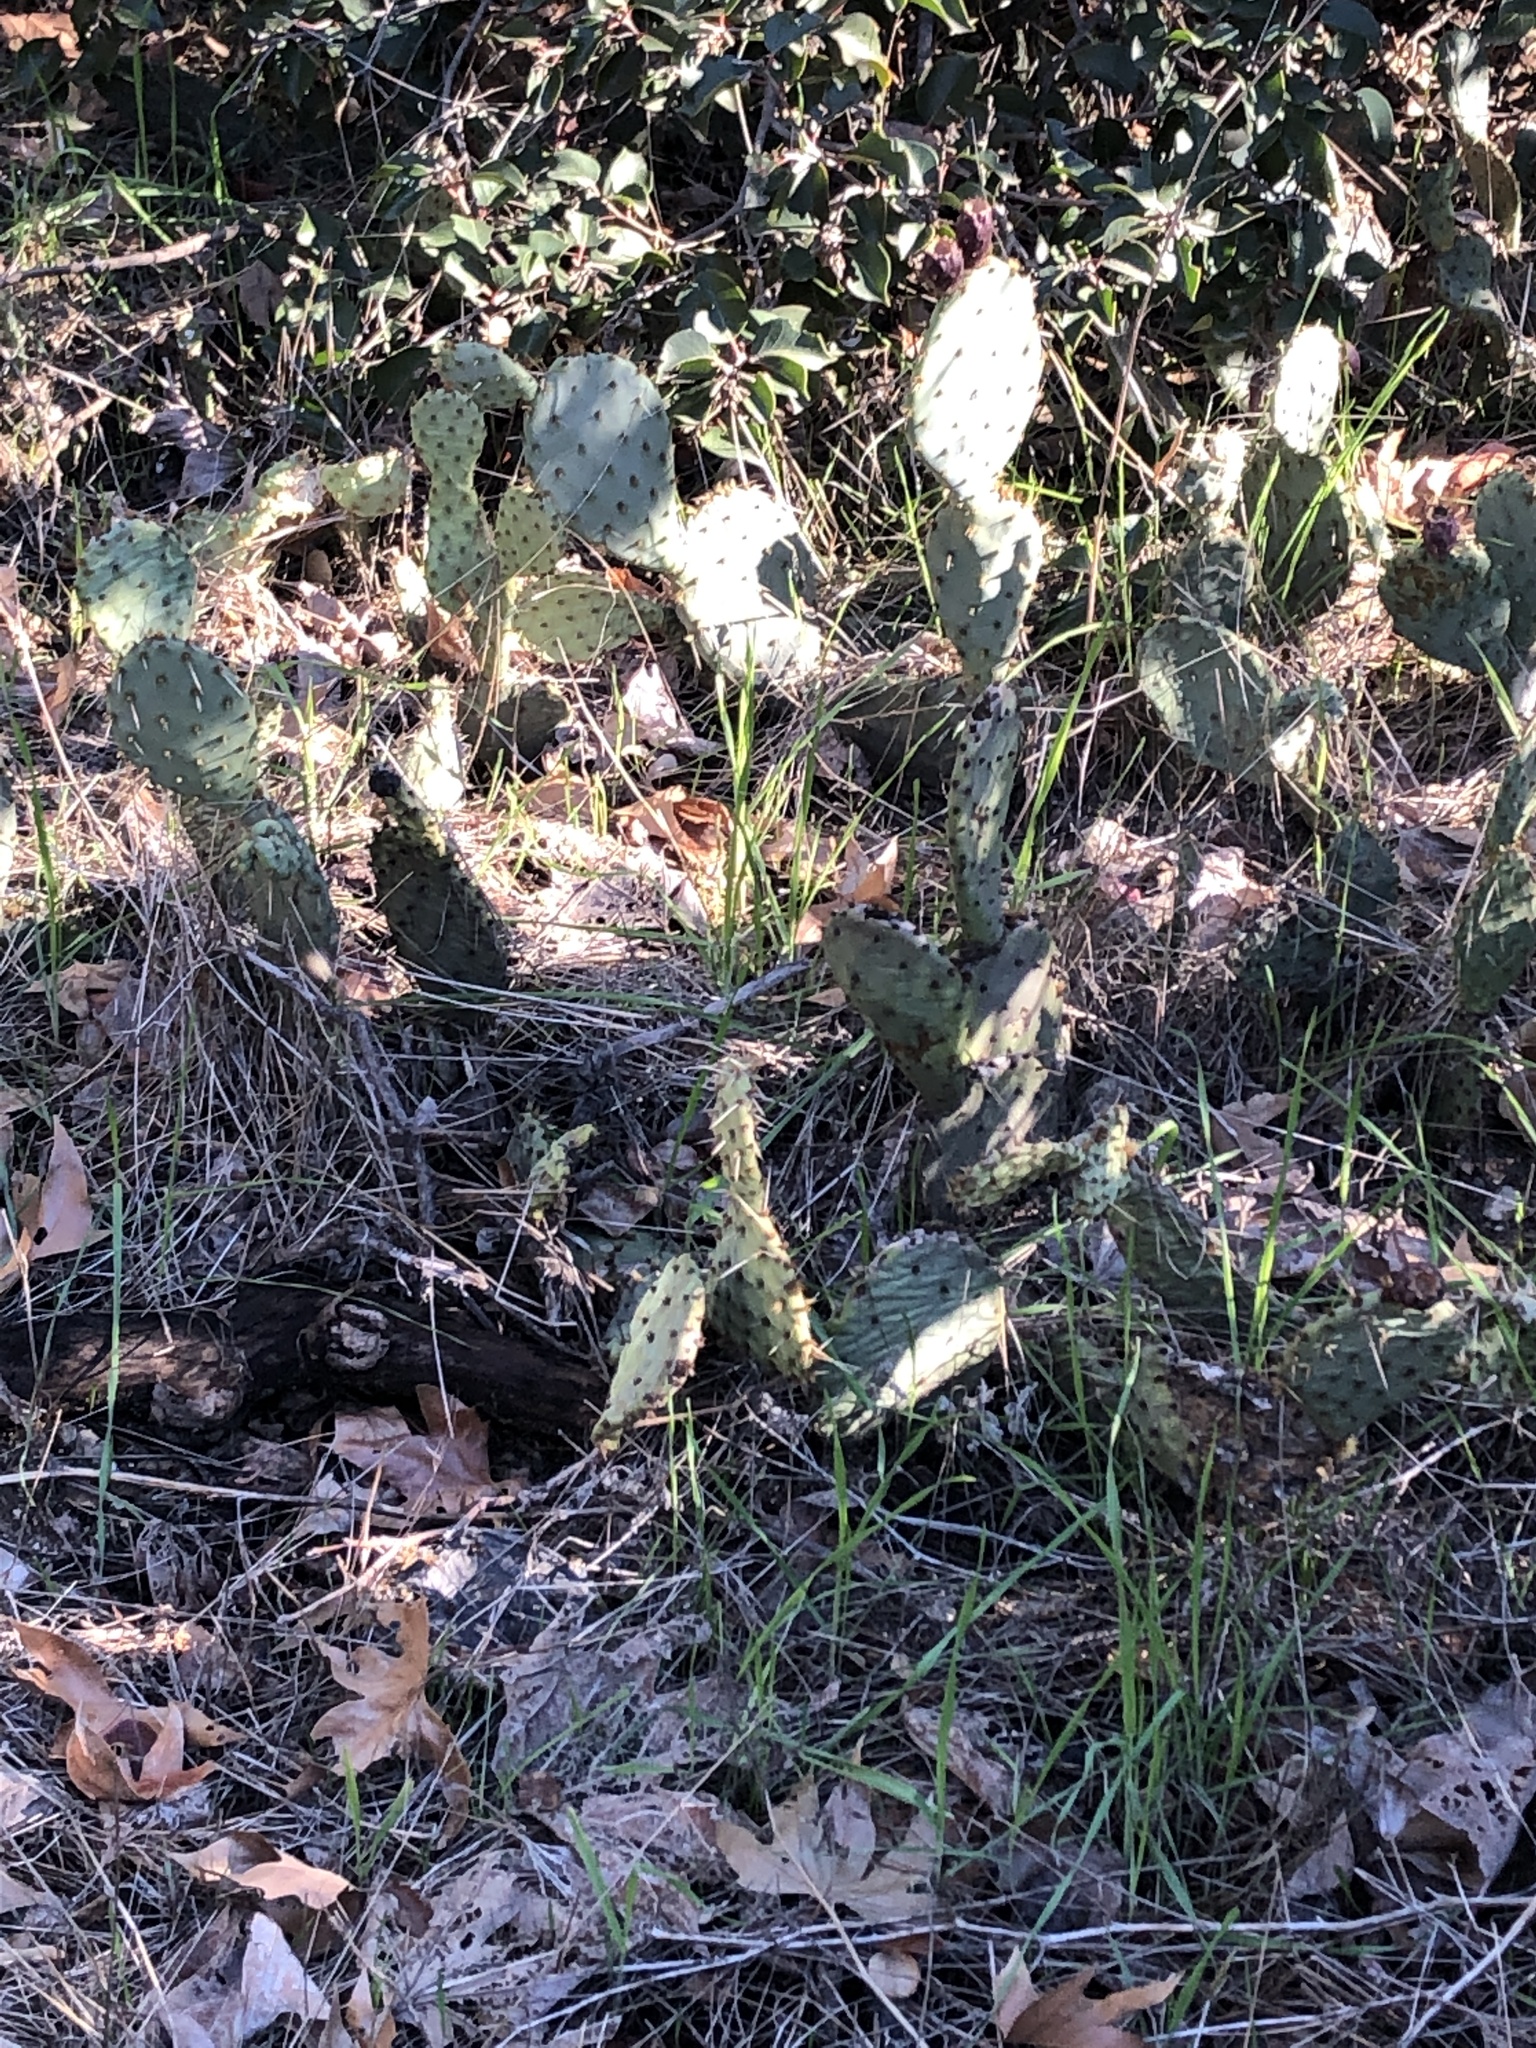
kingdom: Plantae
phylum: Tracheophyta
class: Magnoliopsida
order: Caryophyllales
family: Cactaceae
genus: Opuntia
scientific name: Opuntia
